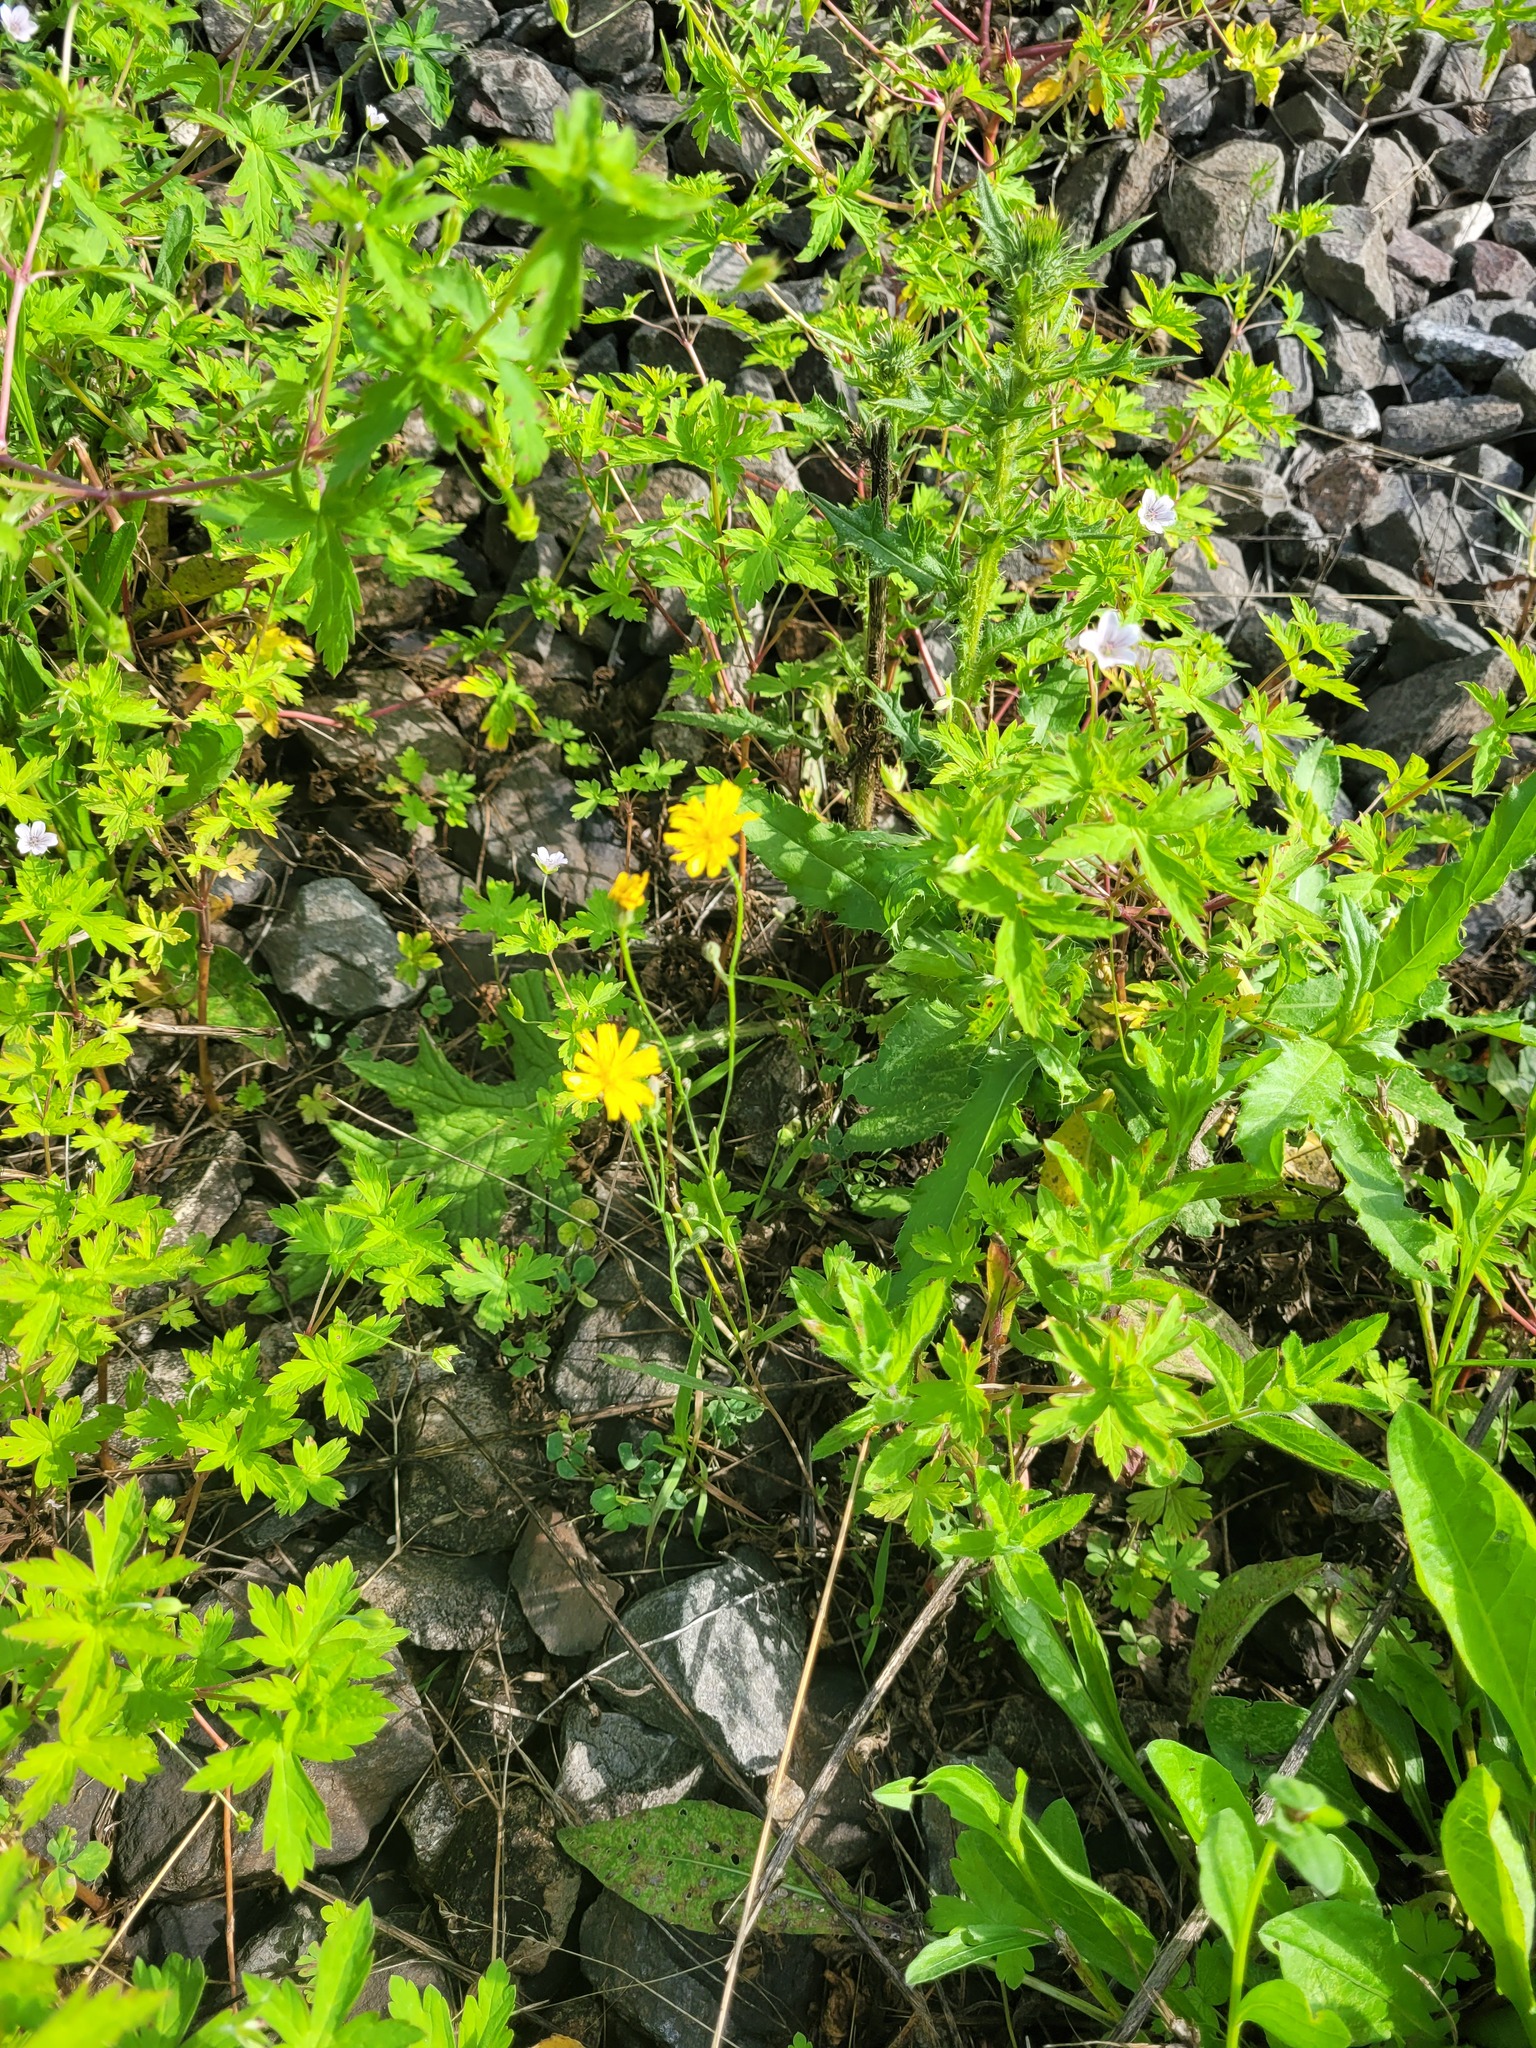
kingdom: Plantae
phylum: Tracheophyta
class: Magnoliopsida
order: Asterales
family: Asteraceae
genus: Crepis
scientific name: Crepis tectorum
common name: Narrow-leaved hawk's-beard
